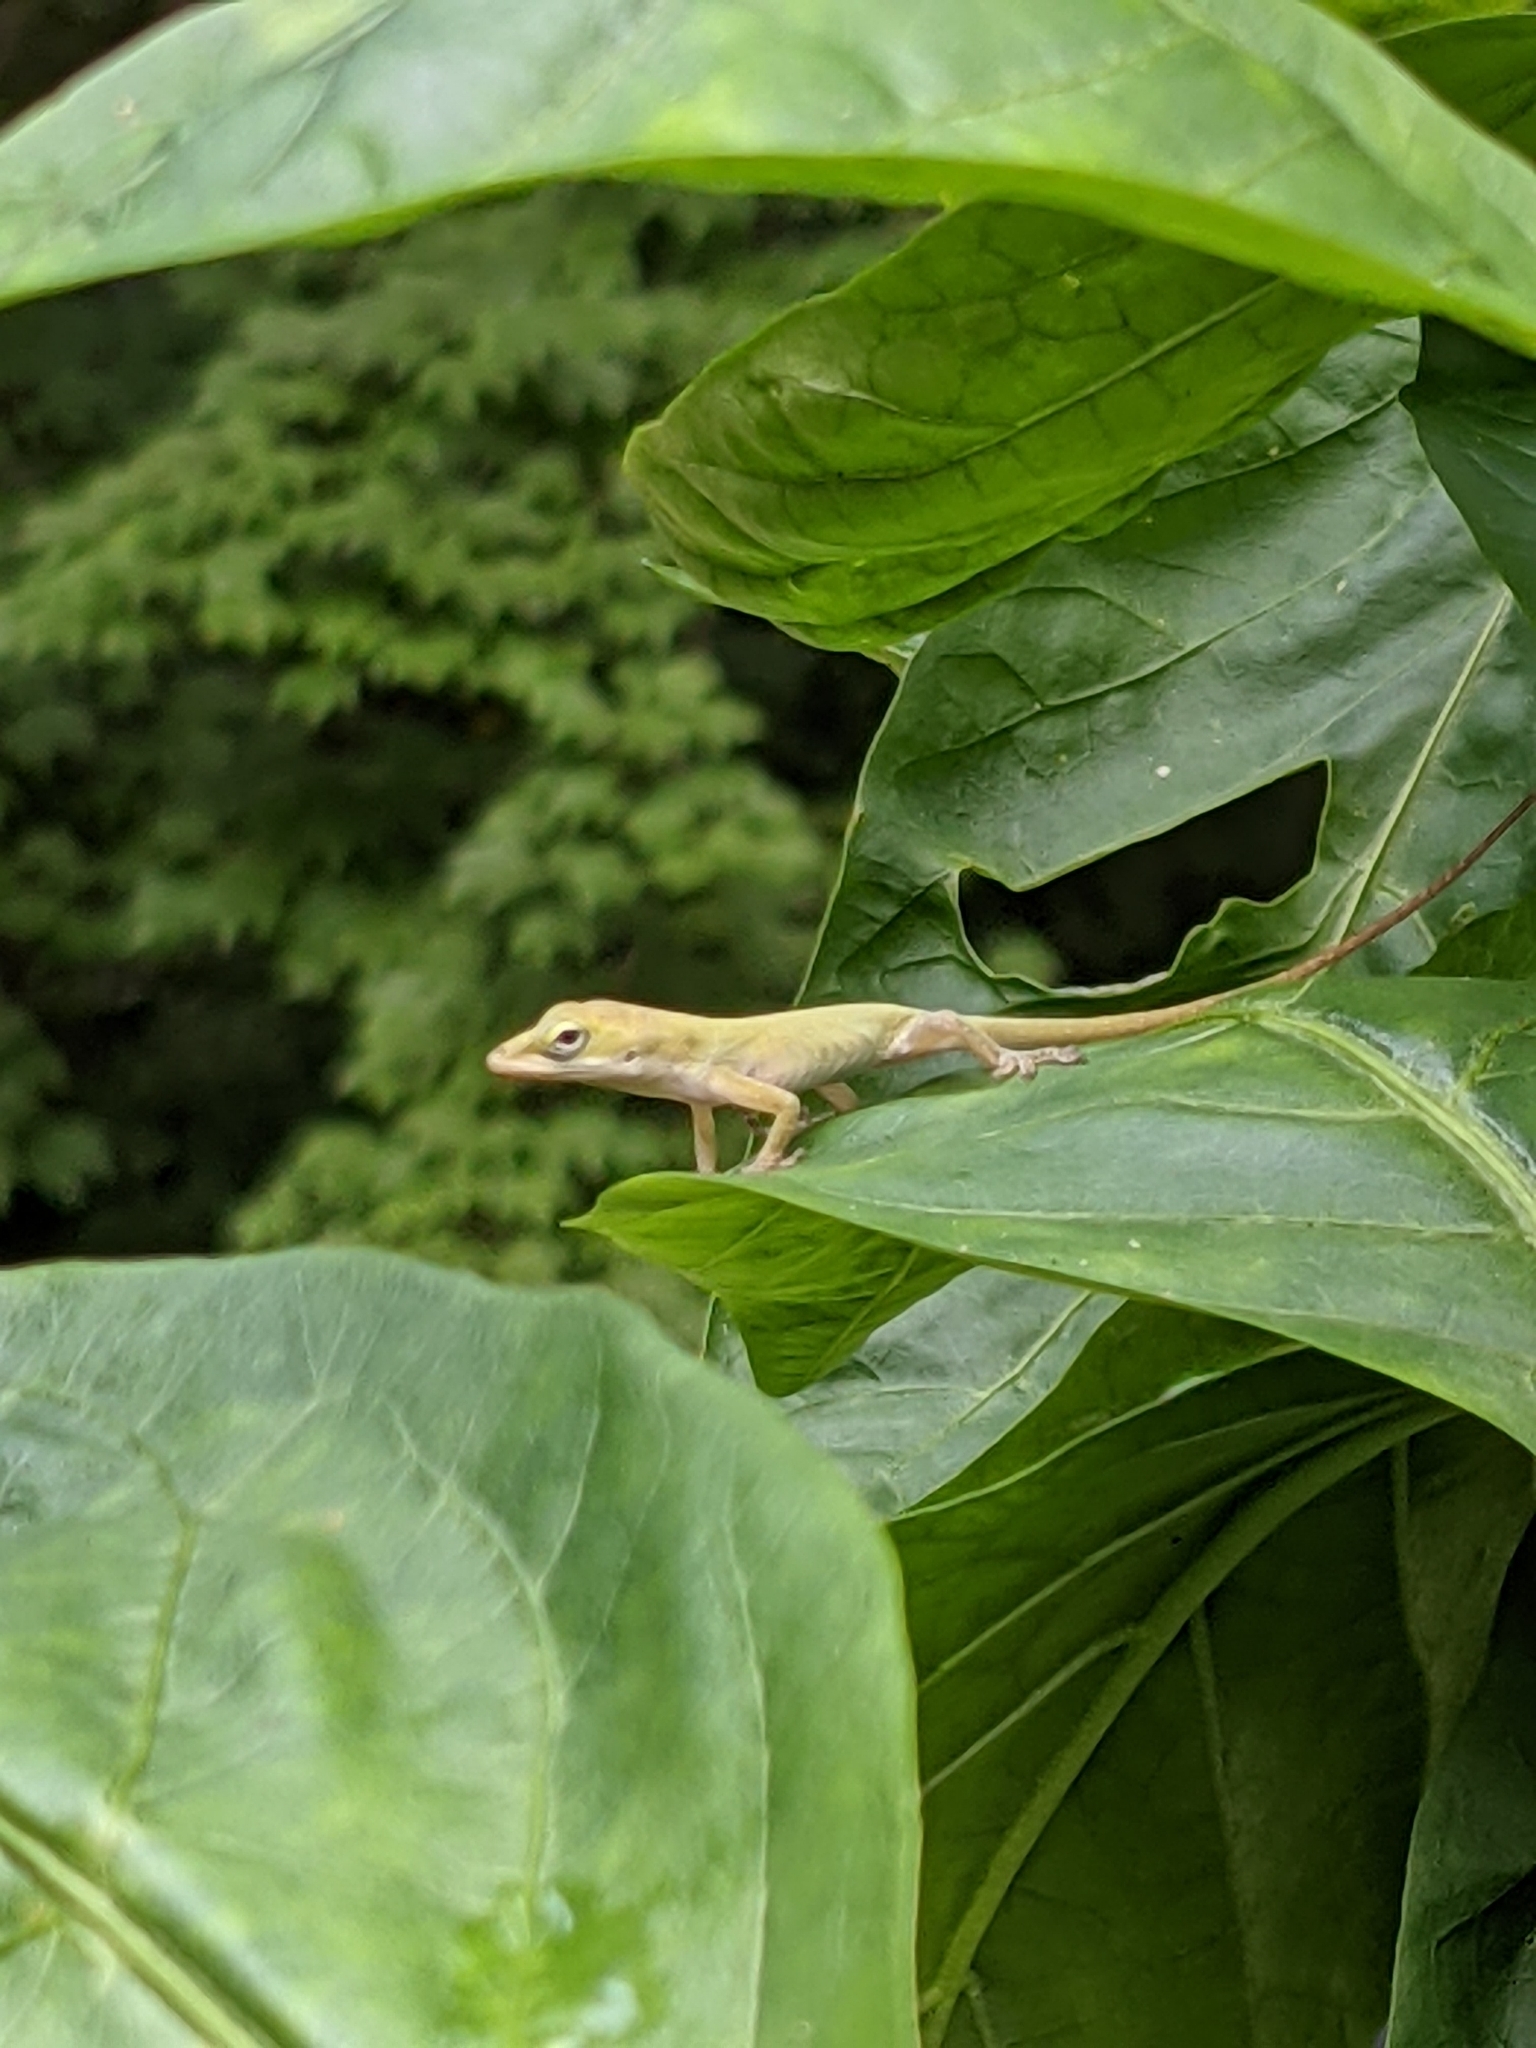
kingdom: Animalia
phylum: Chordata
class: Squamata
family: Dactyloidae
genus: Anolis
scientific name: Anolis carolinensis
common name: Green anole
